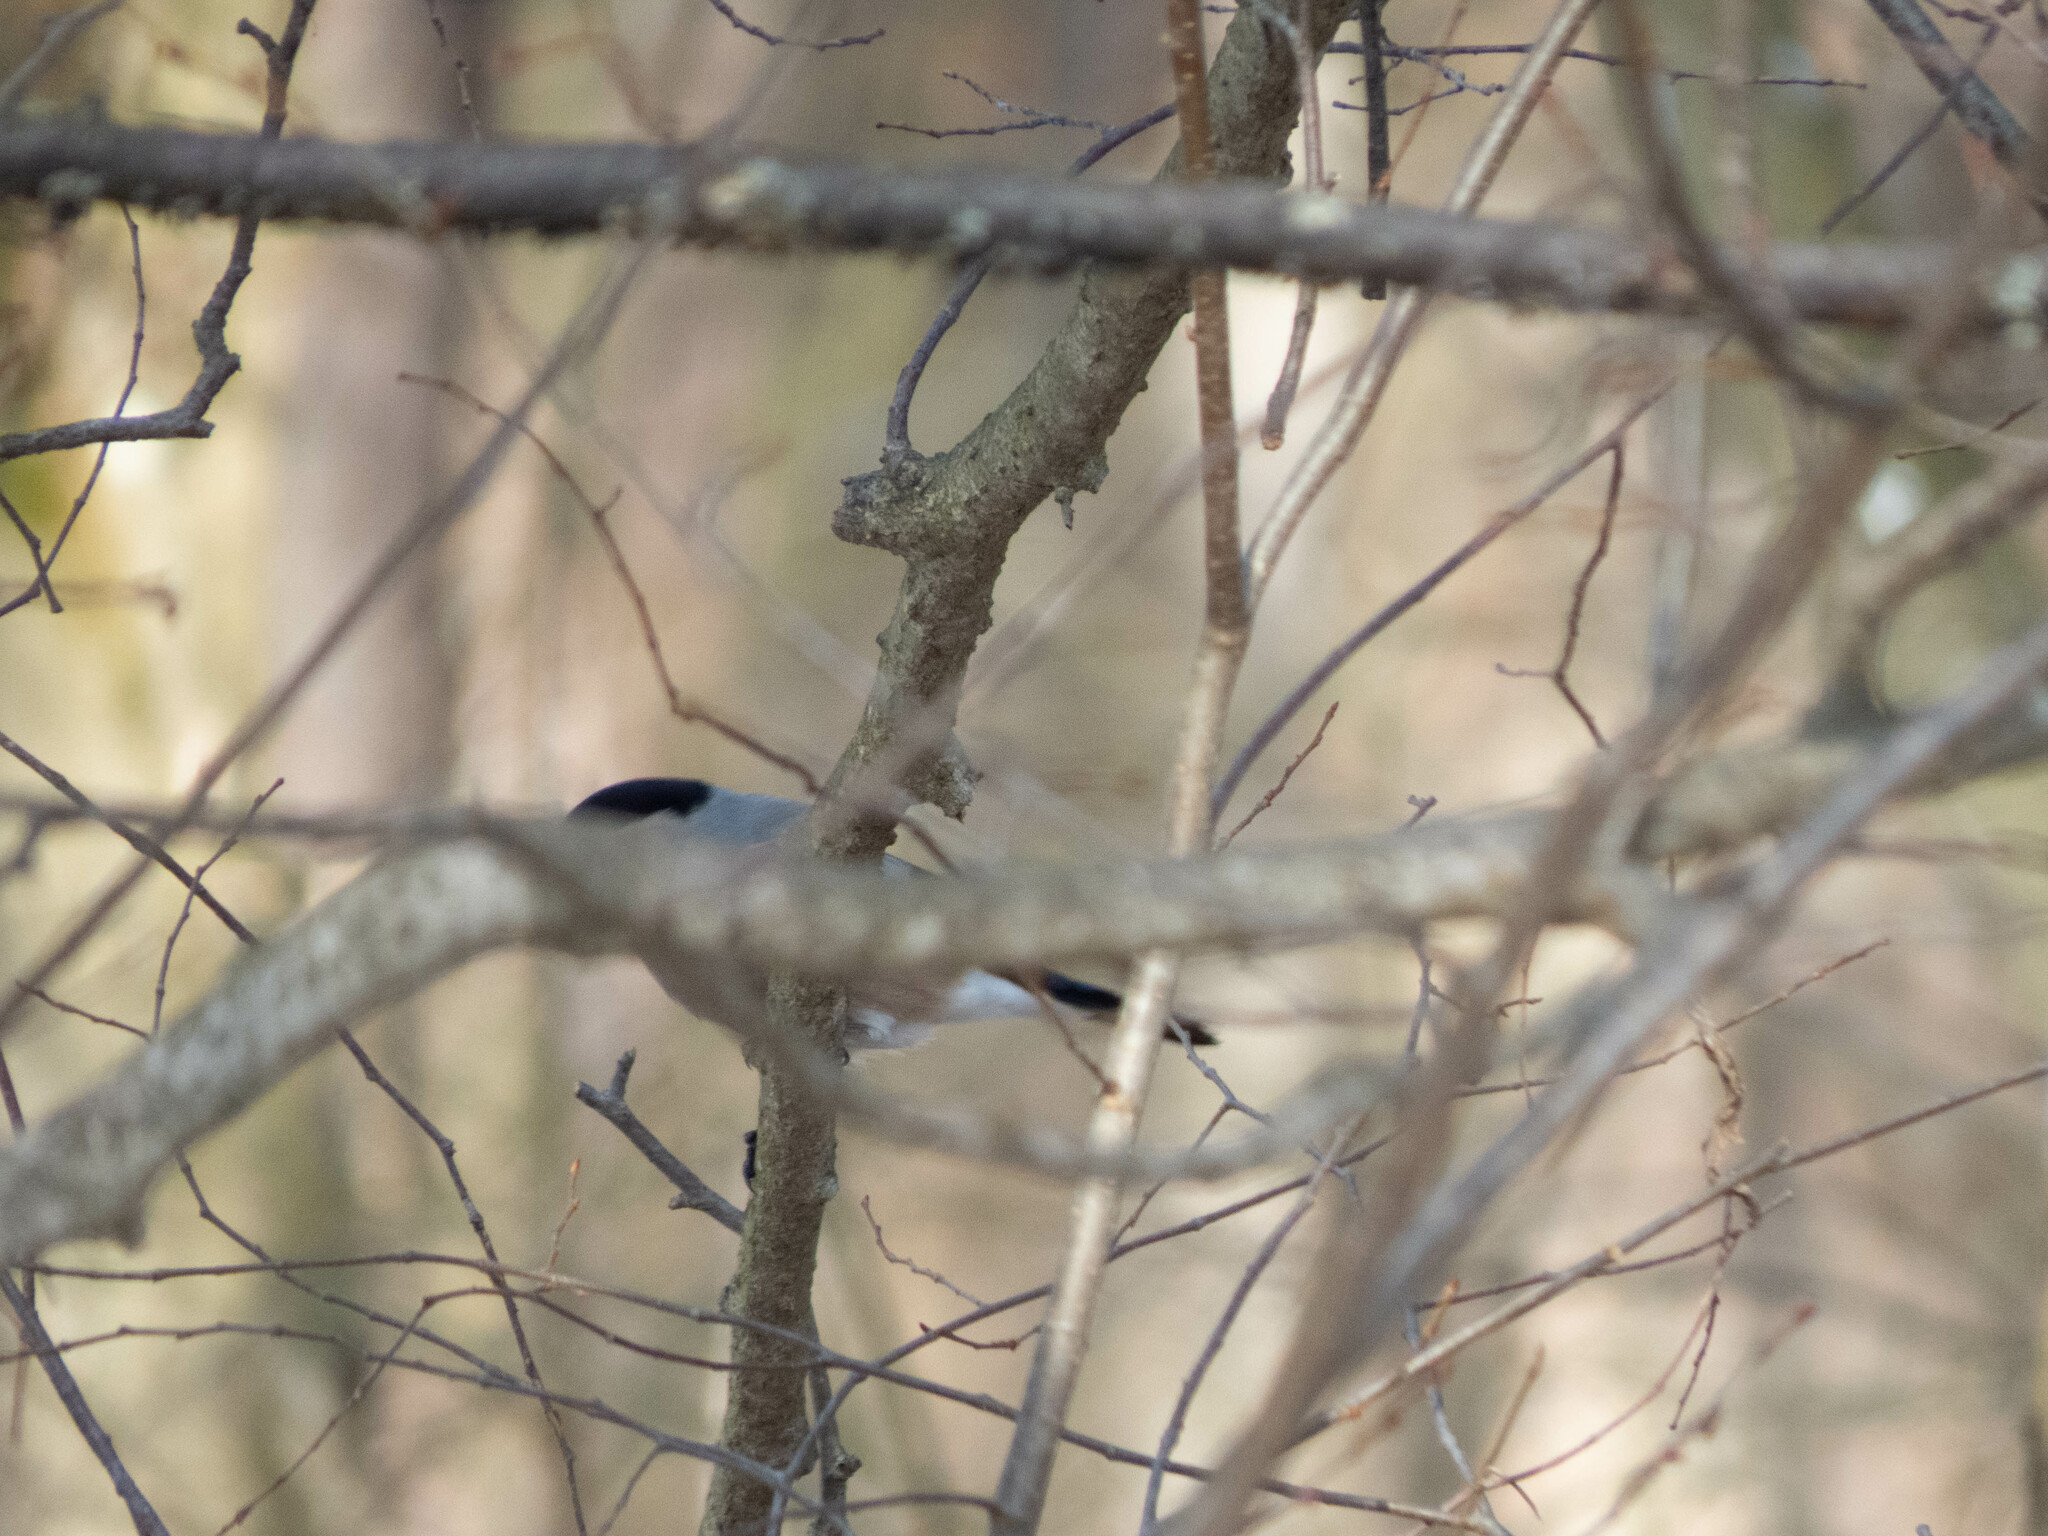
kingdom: Animalia
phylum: Chordata
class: Aves
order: Passeriformes
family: Fringillidae
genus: Pyrrhula
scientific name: Pyrrhula pyrrhula
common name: Eurasian bullfinch
